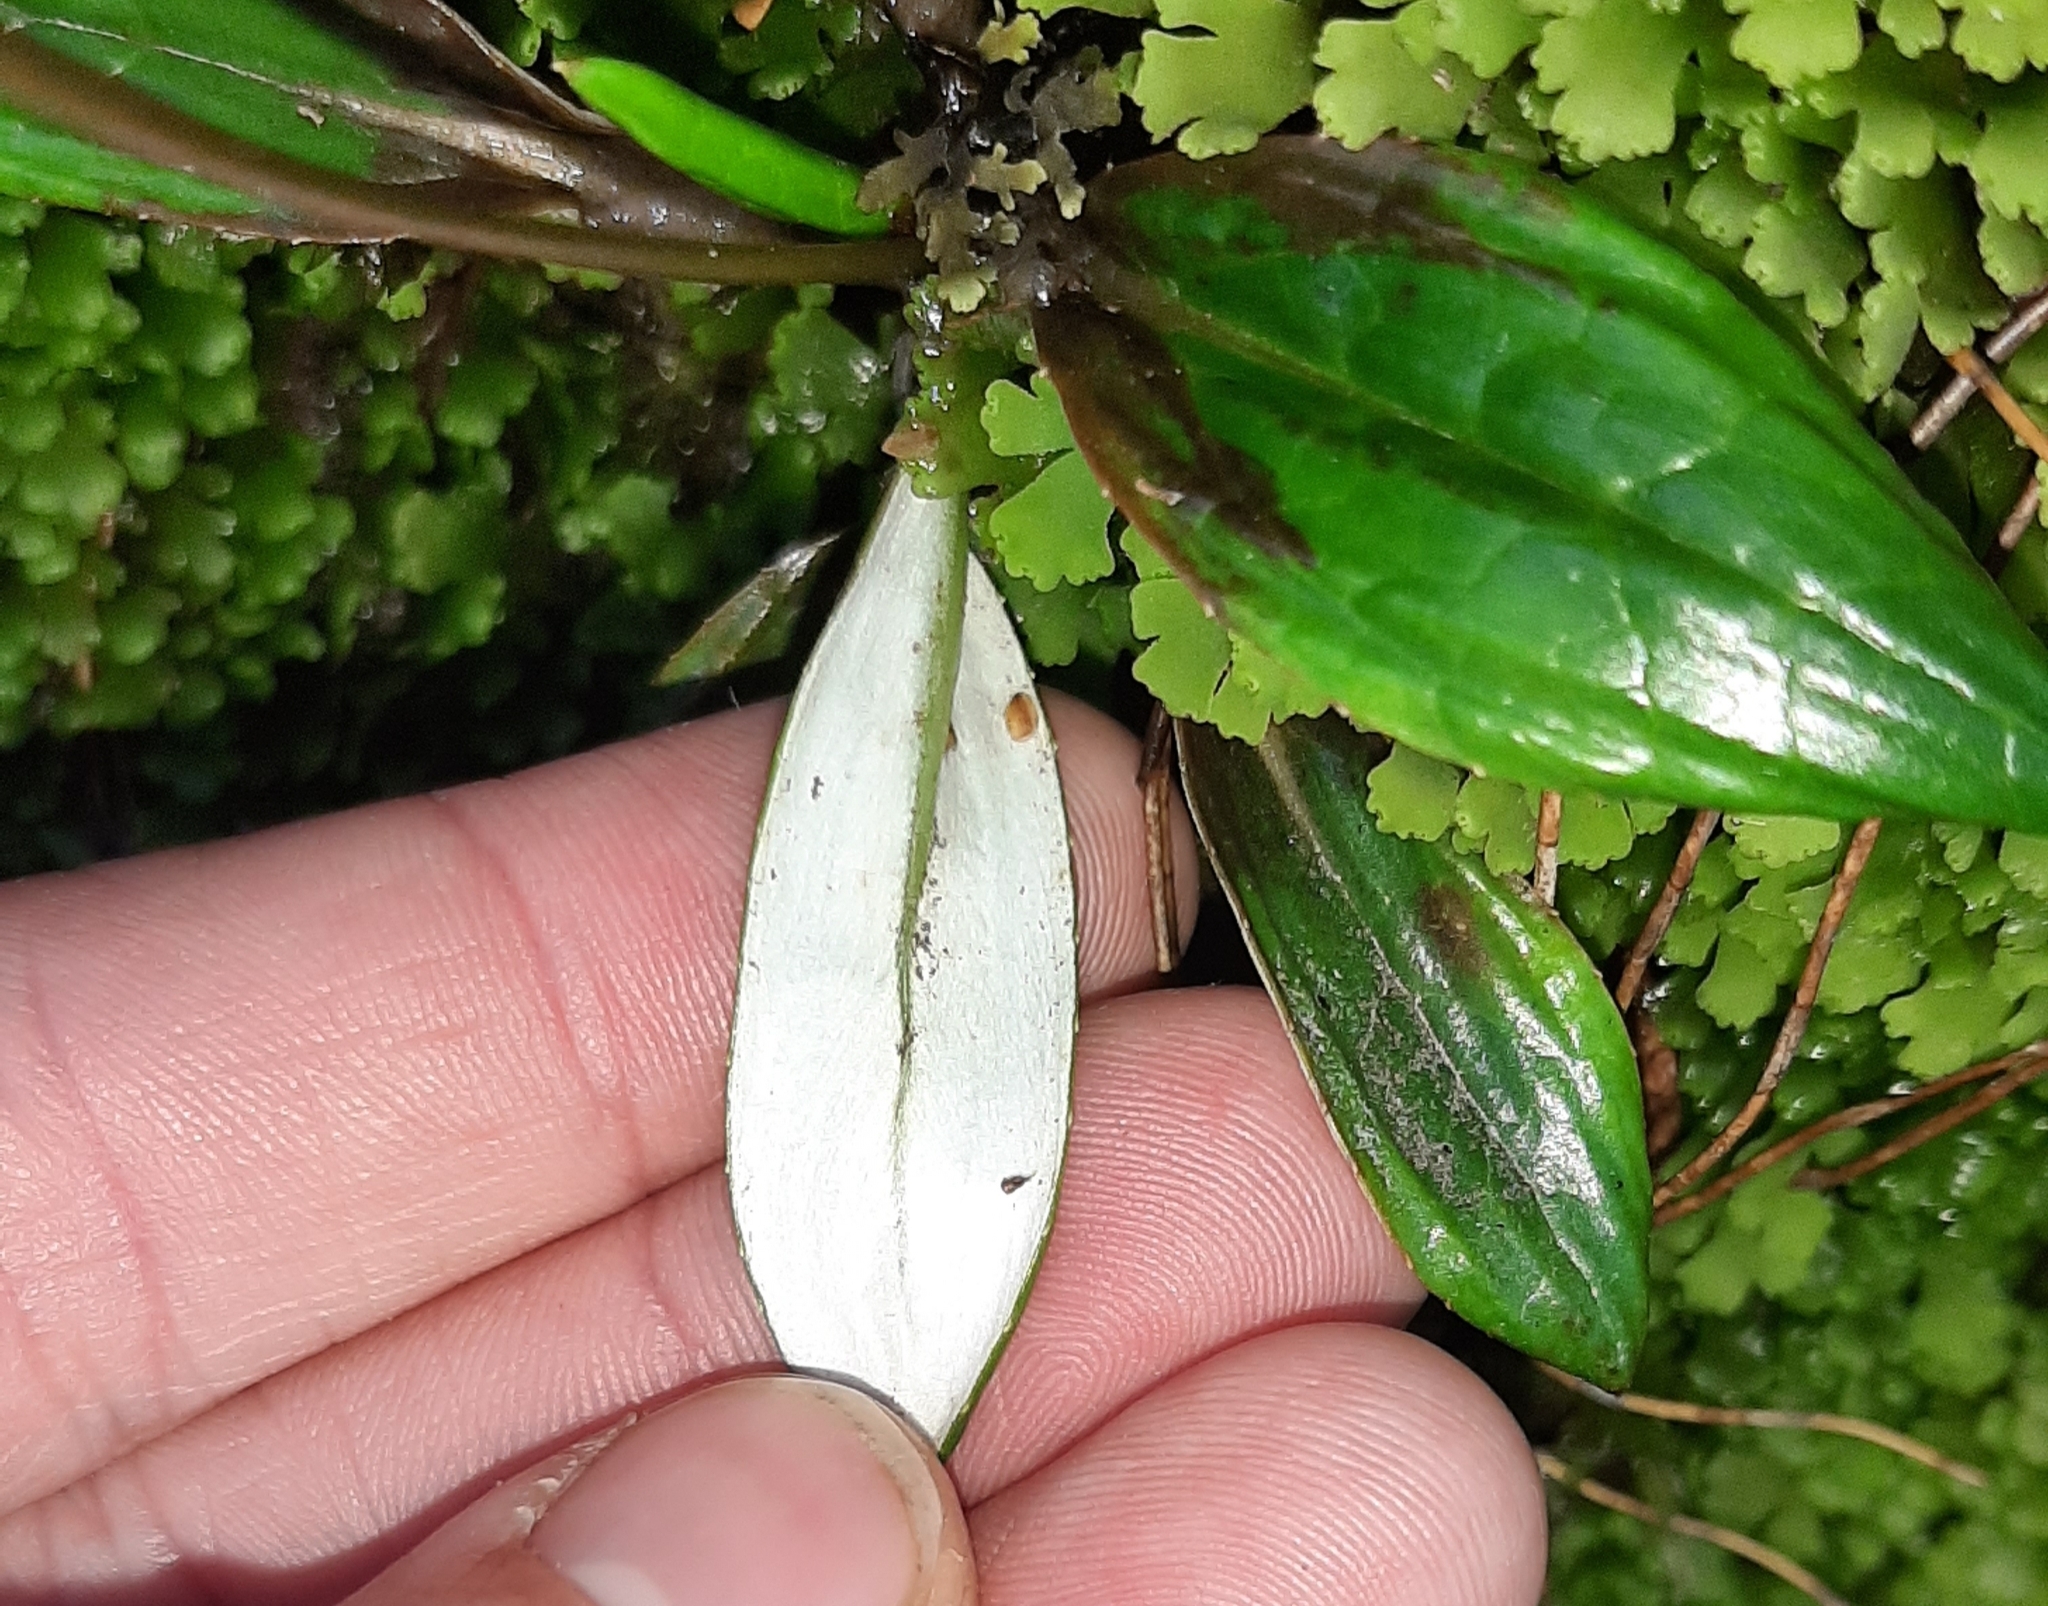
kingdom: Plantae
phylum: Tracheophyta
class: Magnoliopsida
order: Asterales
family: Asteraceae
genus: Celmisia
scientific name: Celmisia parva
